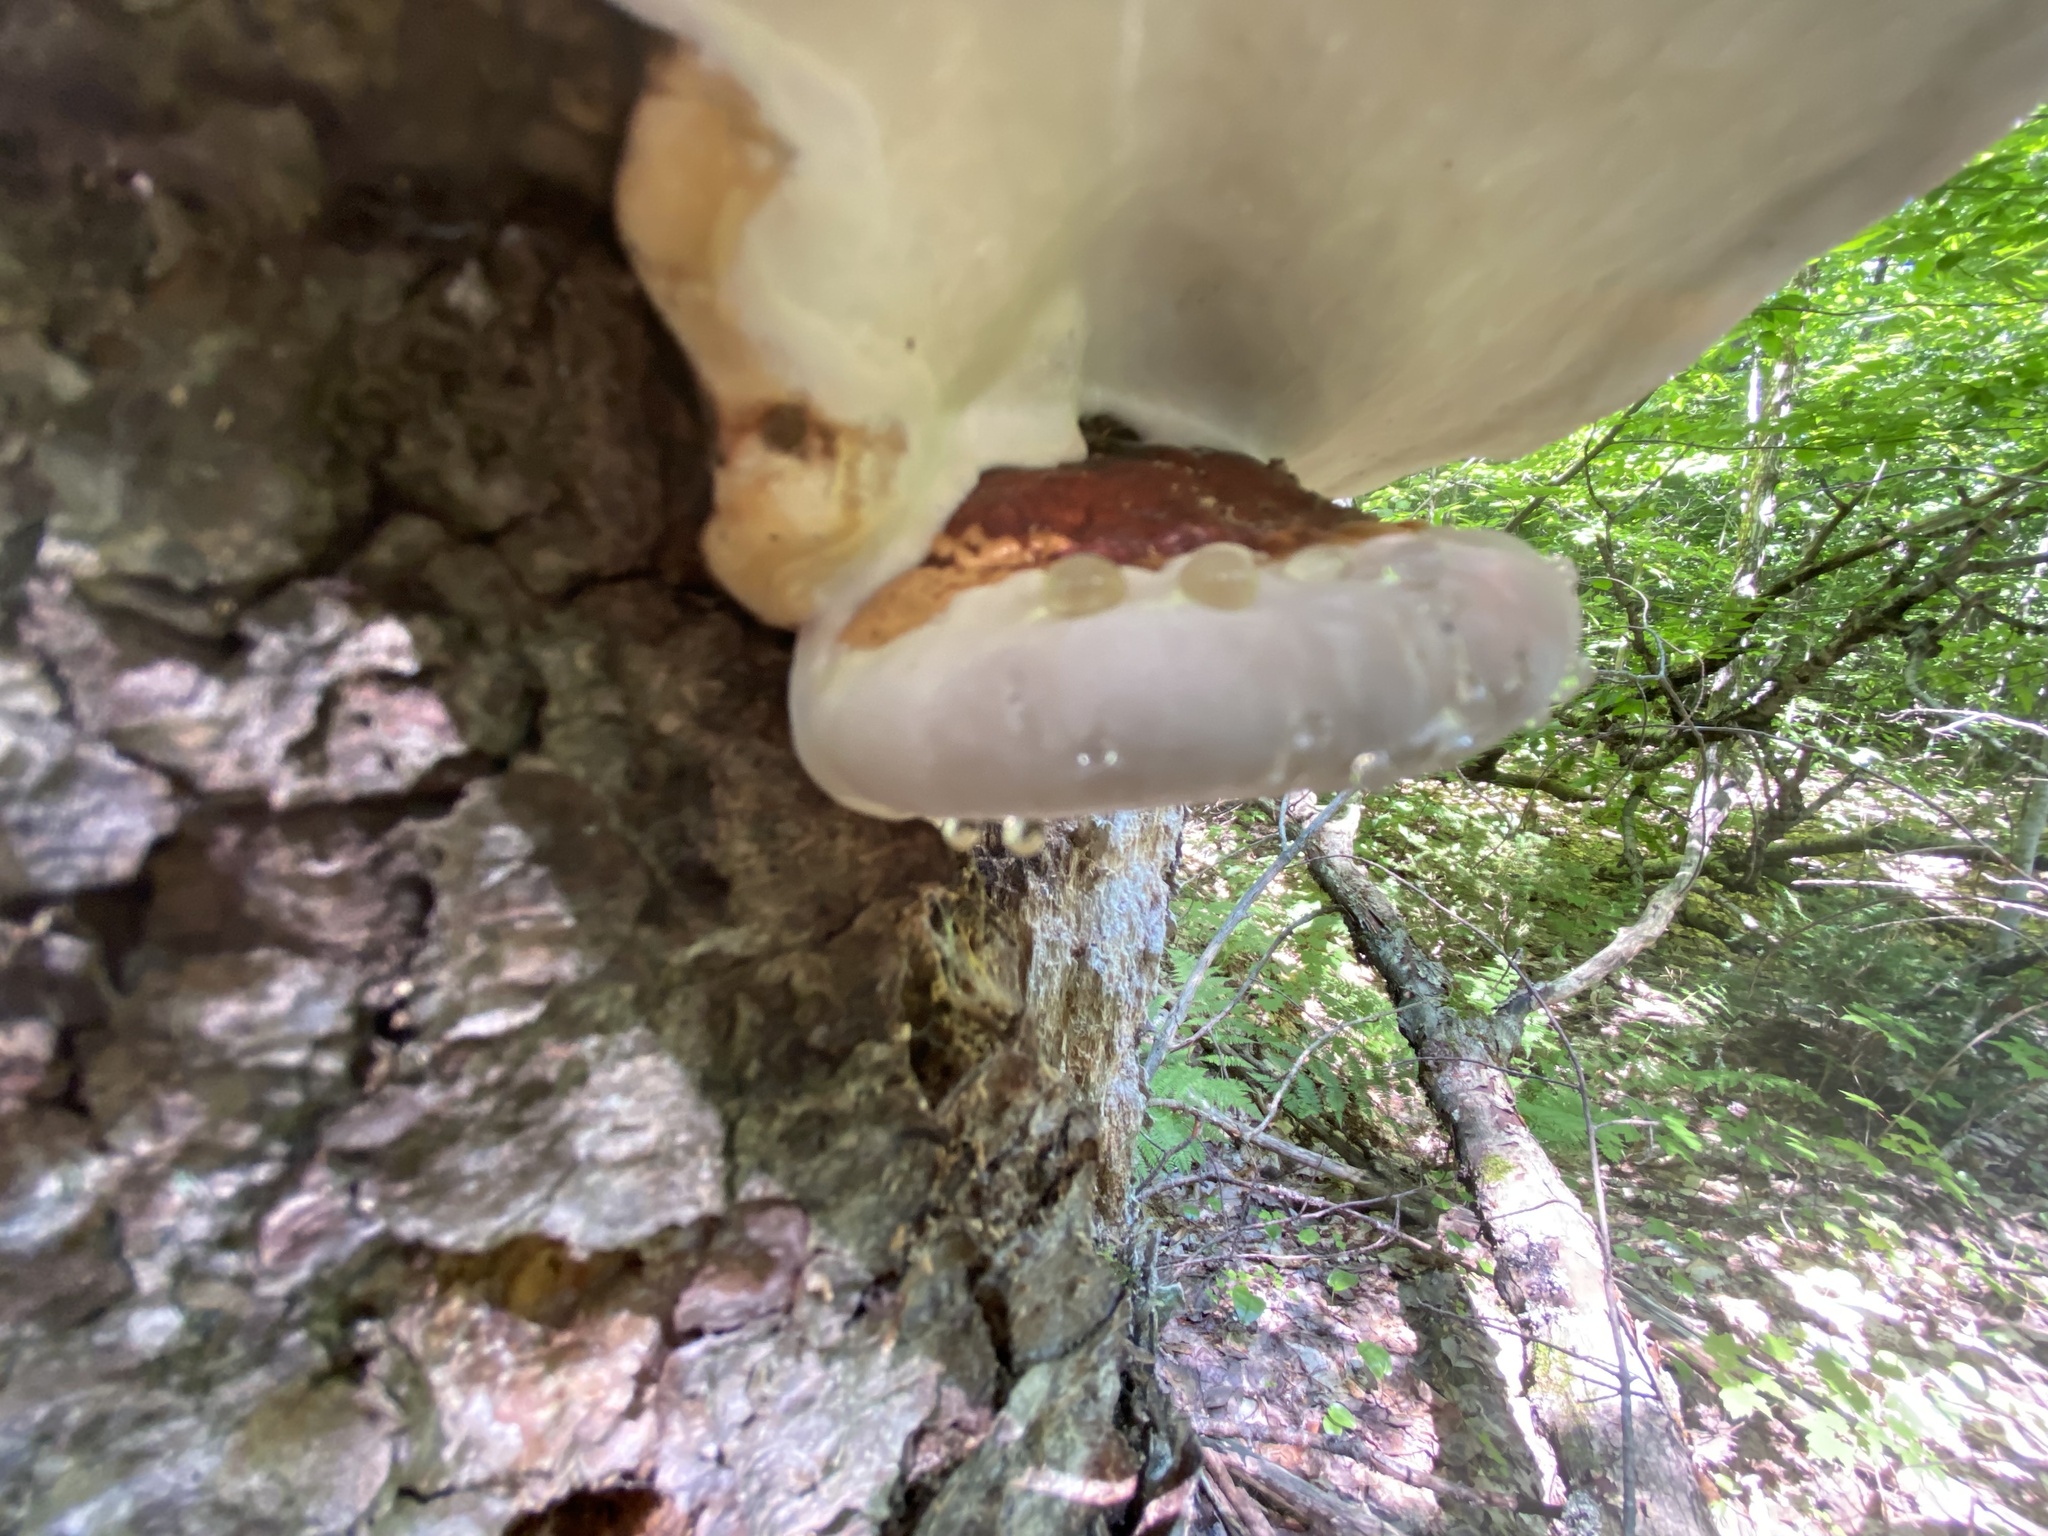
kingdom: Fungi
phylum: Basidiomycota
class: Agaricomycetes
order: Polyporales
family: Fomitopsidaceae
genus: Fomitopsis
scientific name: Fomitopsis mounceae
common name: Northern red belt
